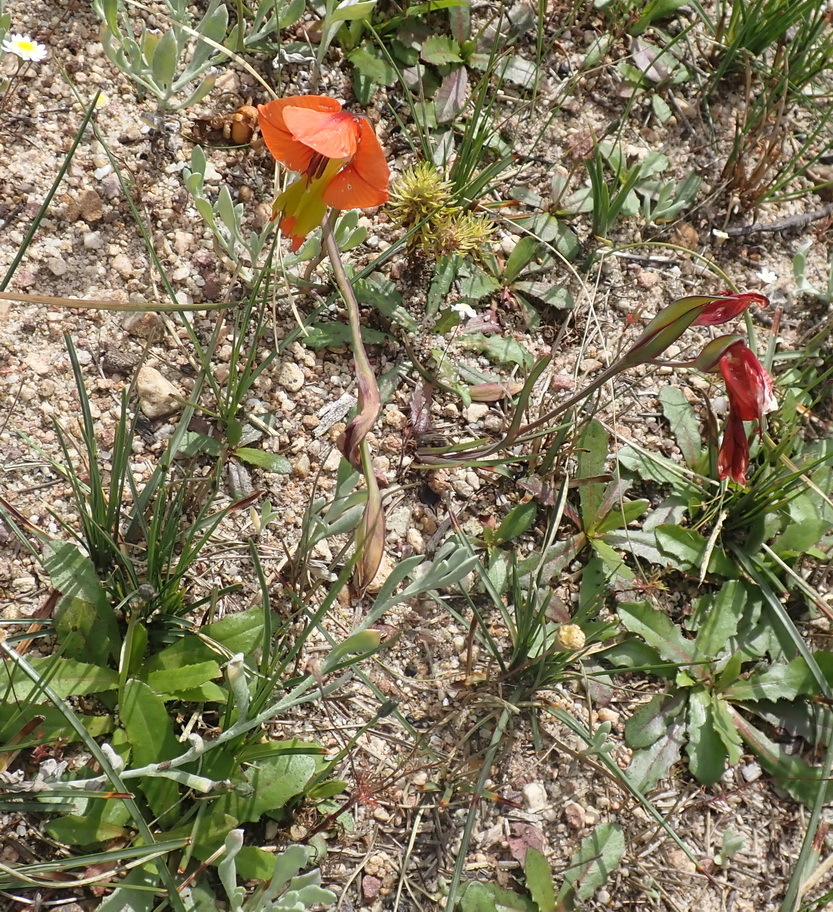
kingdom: Plantae
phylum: Tracheophyta
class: Liliopsida
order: Asparagales
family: Iridaceae
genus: Gladiolus
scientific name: Gladiolus alatus
